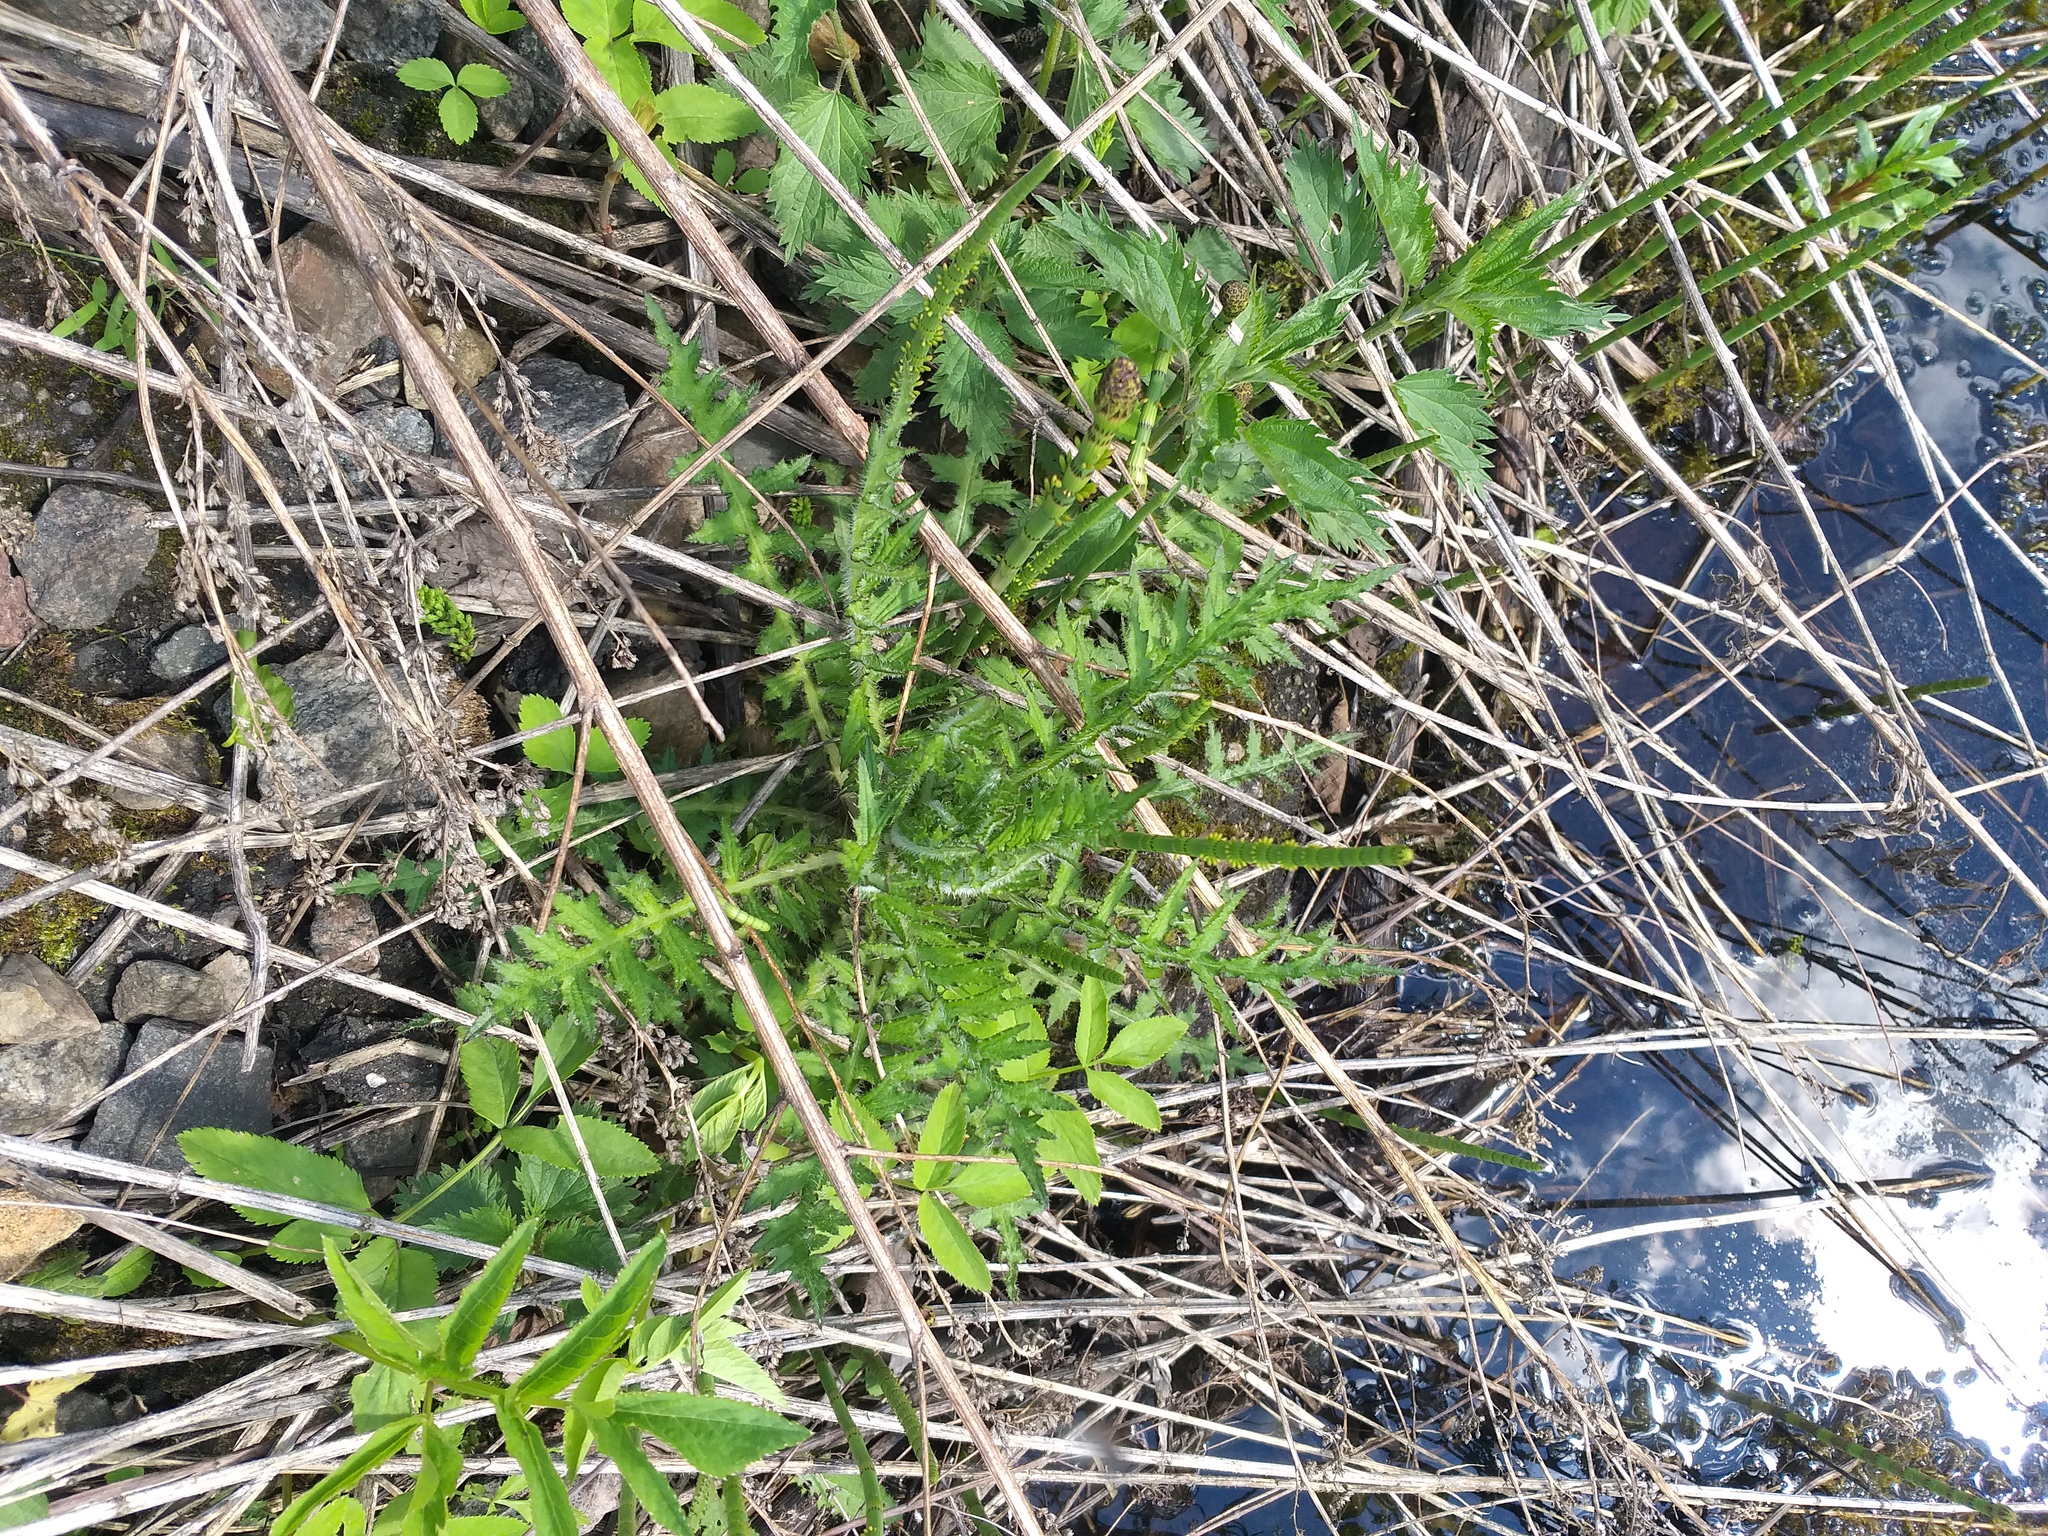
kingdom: Plantae
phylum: Tracheophyta
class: Magnoliopsida
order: Asterales
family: Asteraceae
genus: Cirsium
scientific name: Cirsium palustre
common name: Marsh thistle
